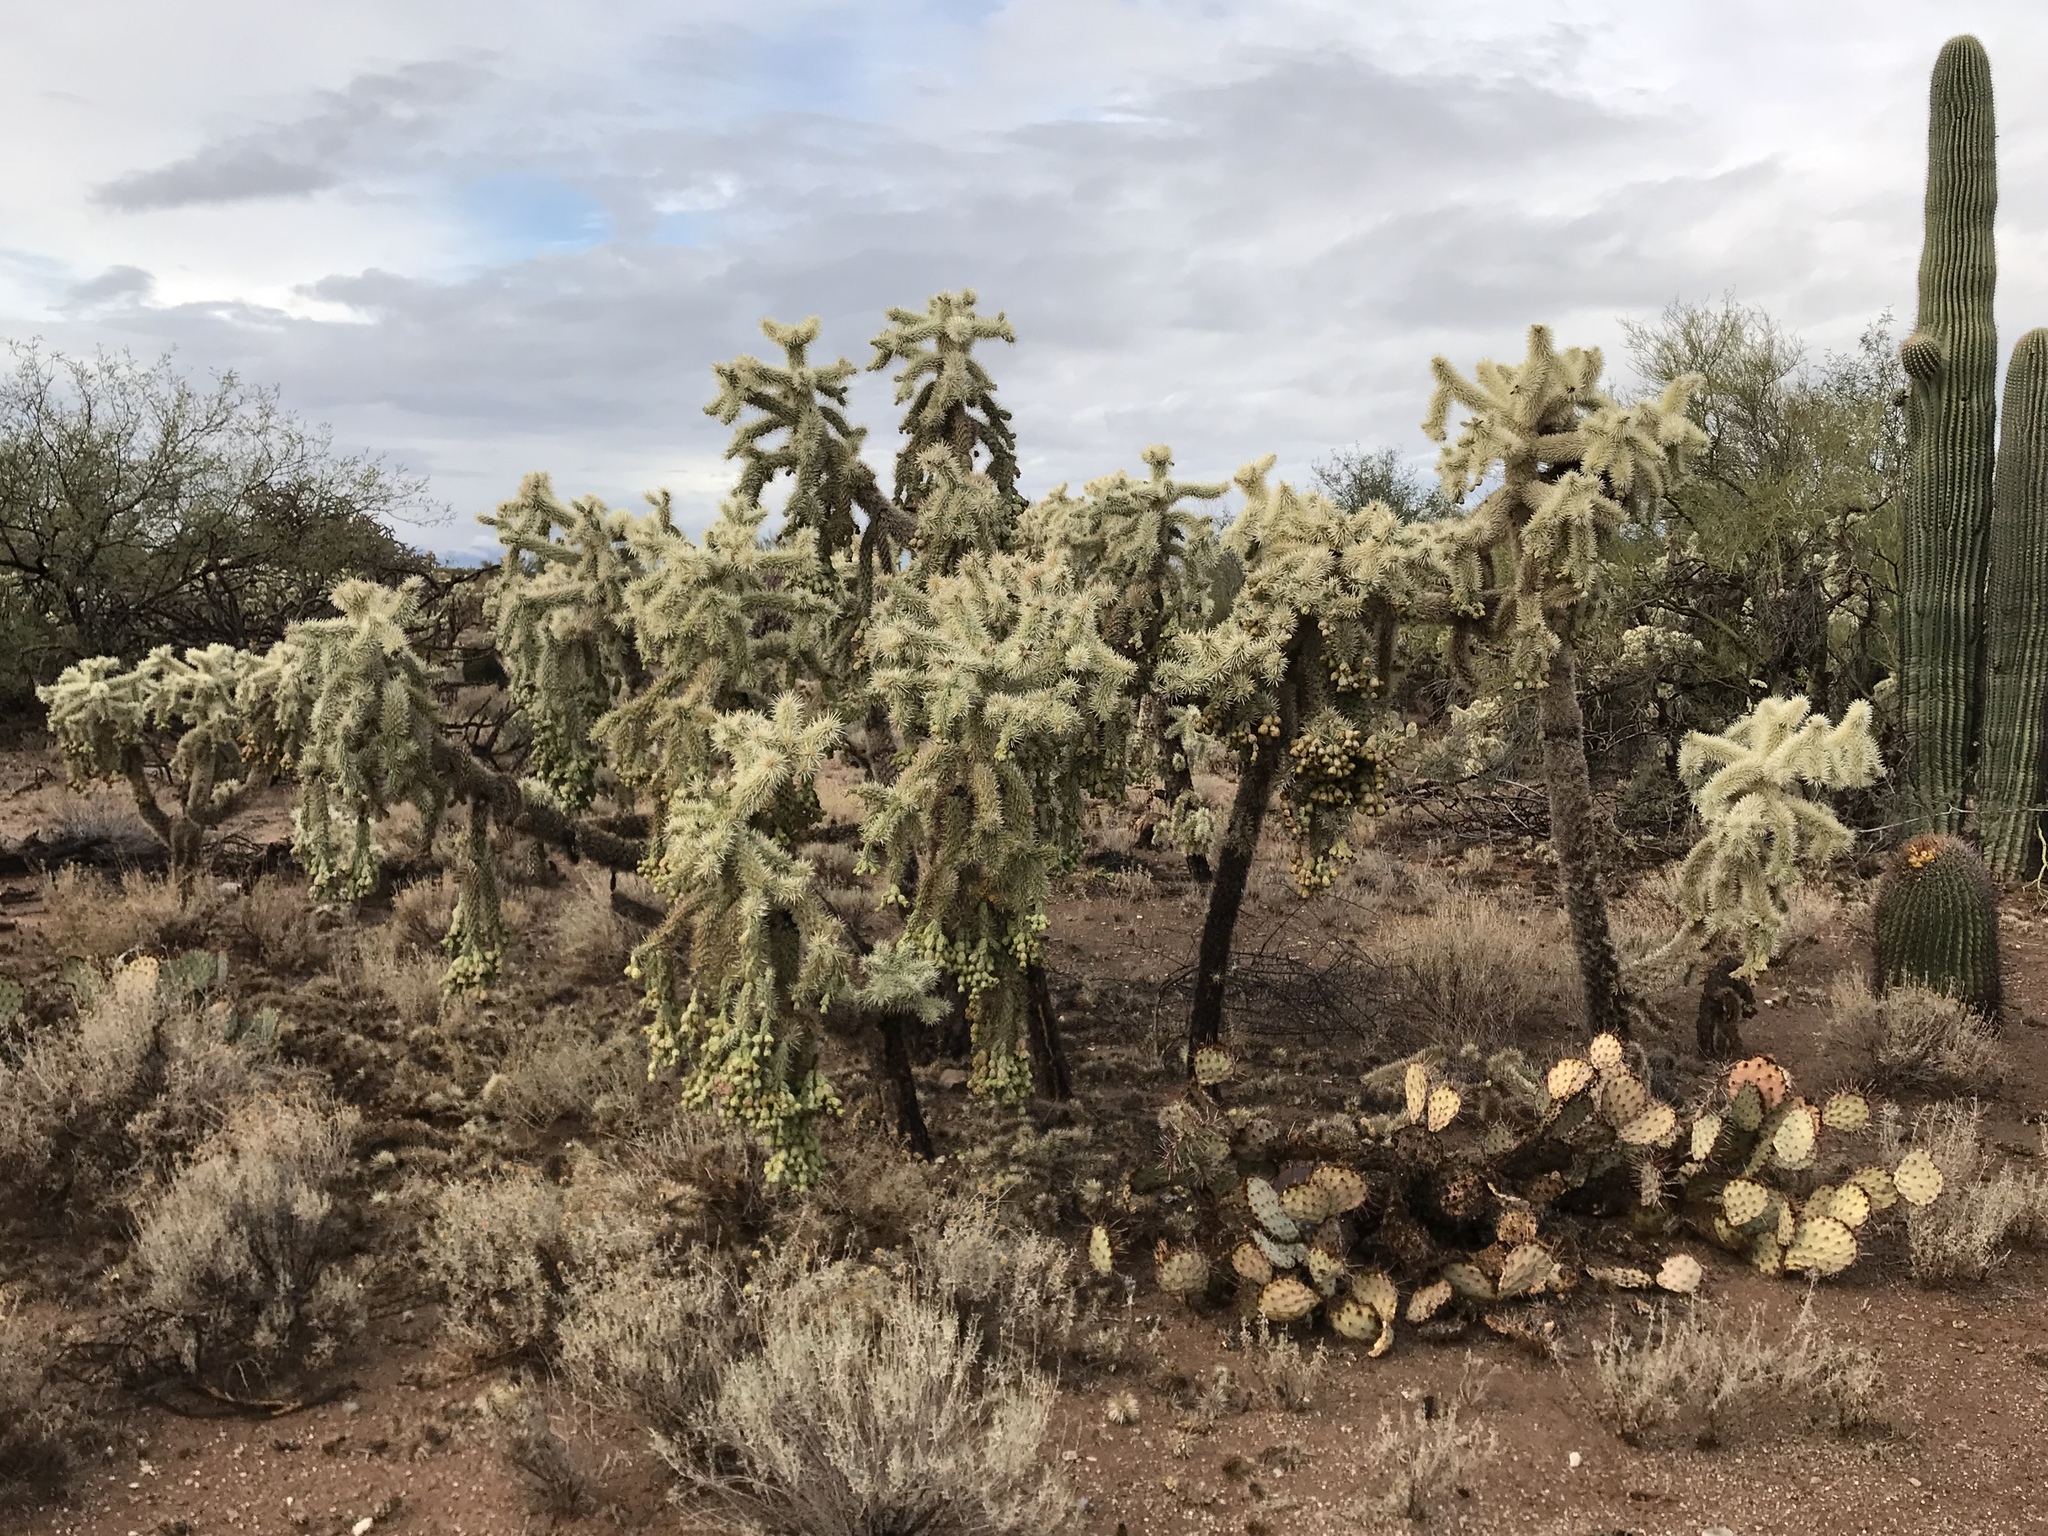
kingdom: Plantae
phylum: Tracheophyta
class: Magnoliopsida
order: Caryophyllales
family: Cactaceae
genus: Cylindropuntia
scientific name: Cylindropuntia fulgida
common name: Jumping cholla
